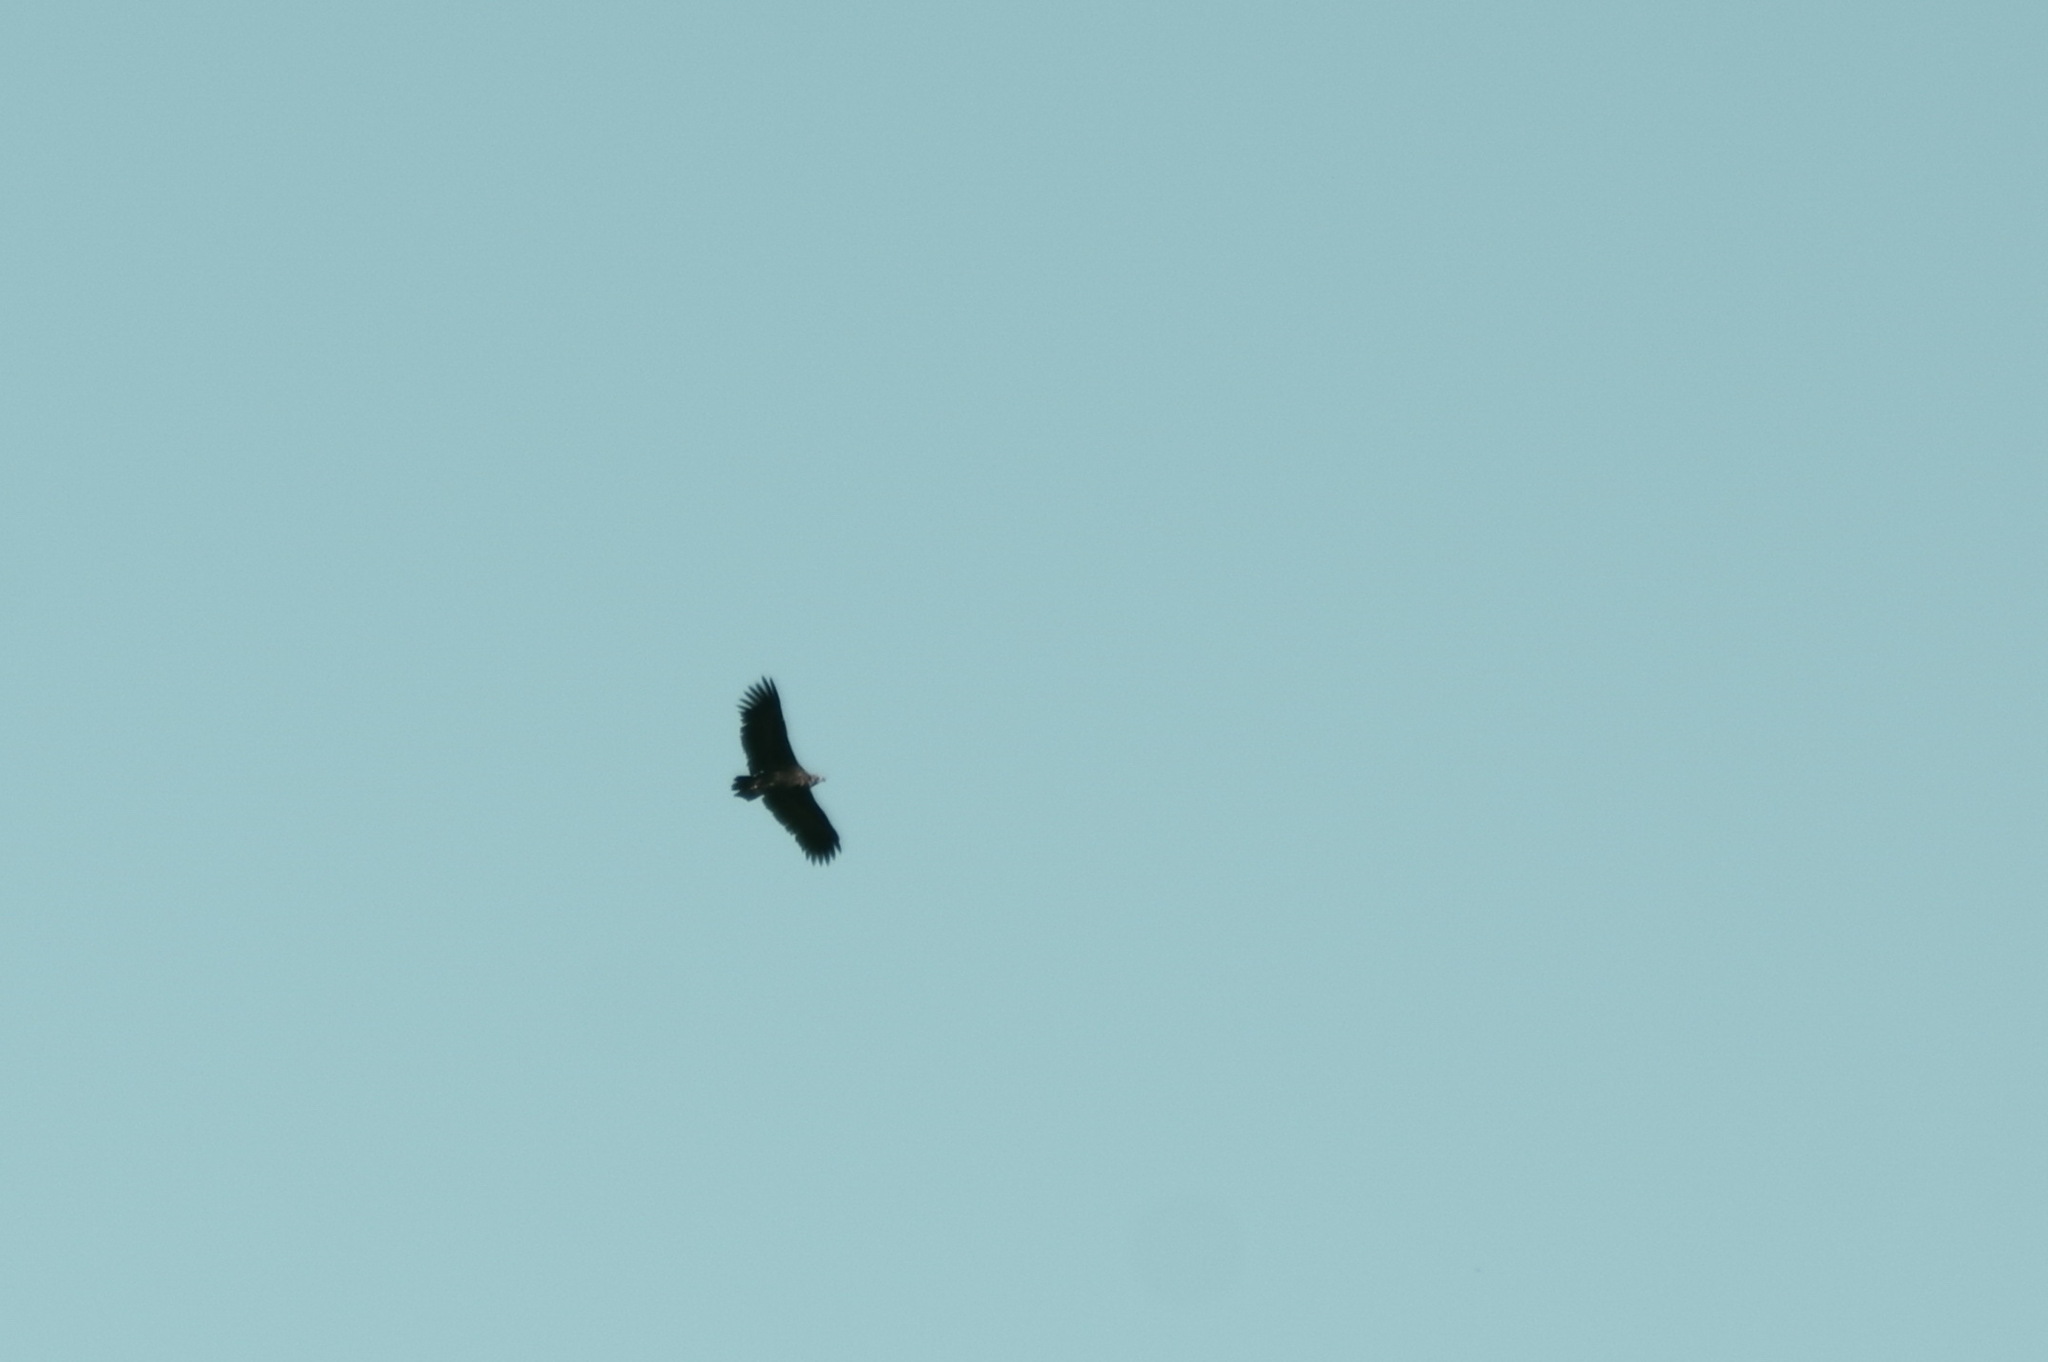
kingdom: Animalia
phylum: Chordata
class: Aves
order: Accipitriformes
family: Accipitridae
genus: Aegypius
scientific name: Aegypius monachus
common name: Cinereous vulture
